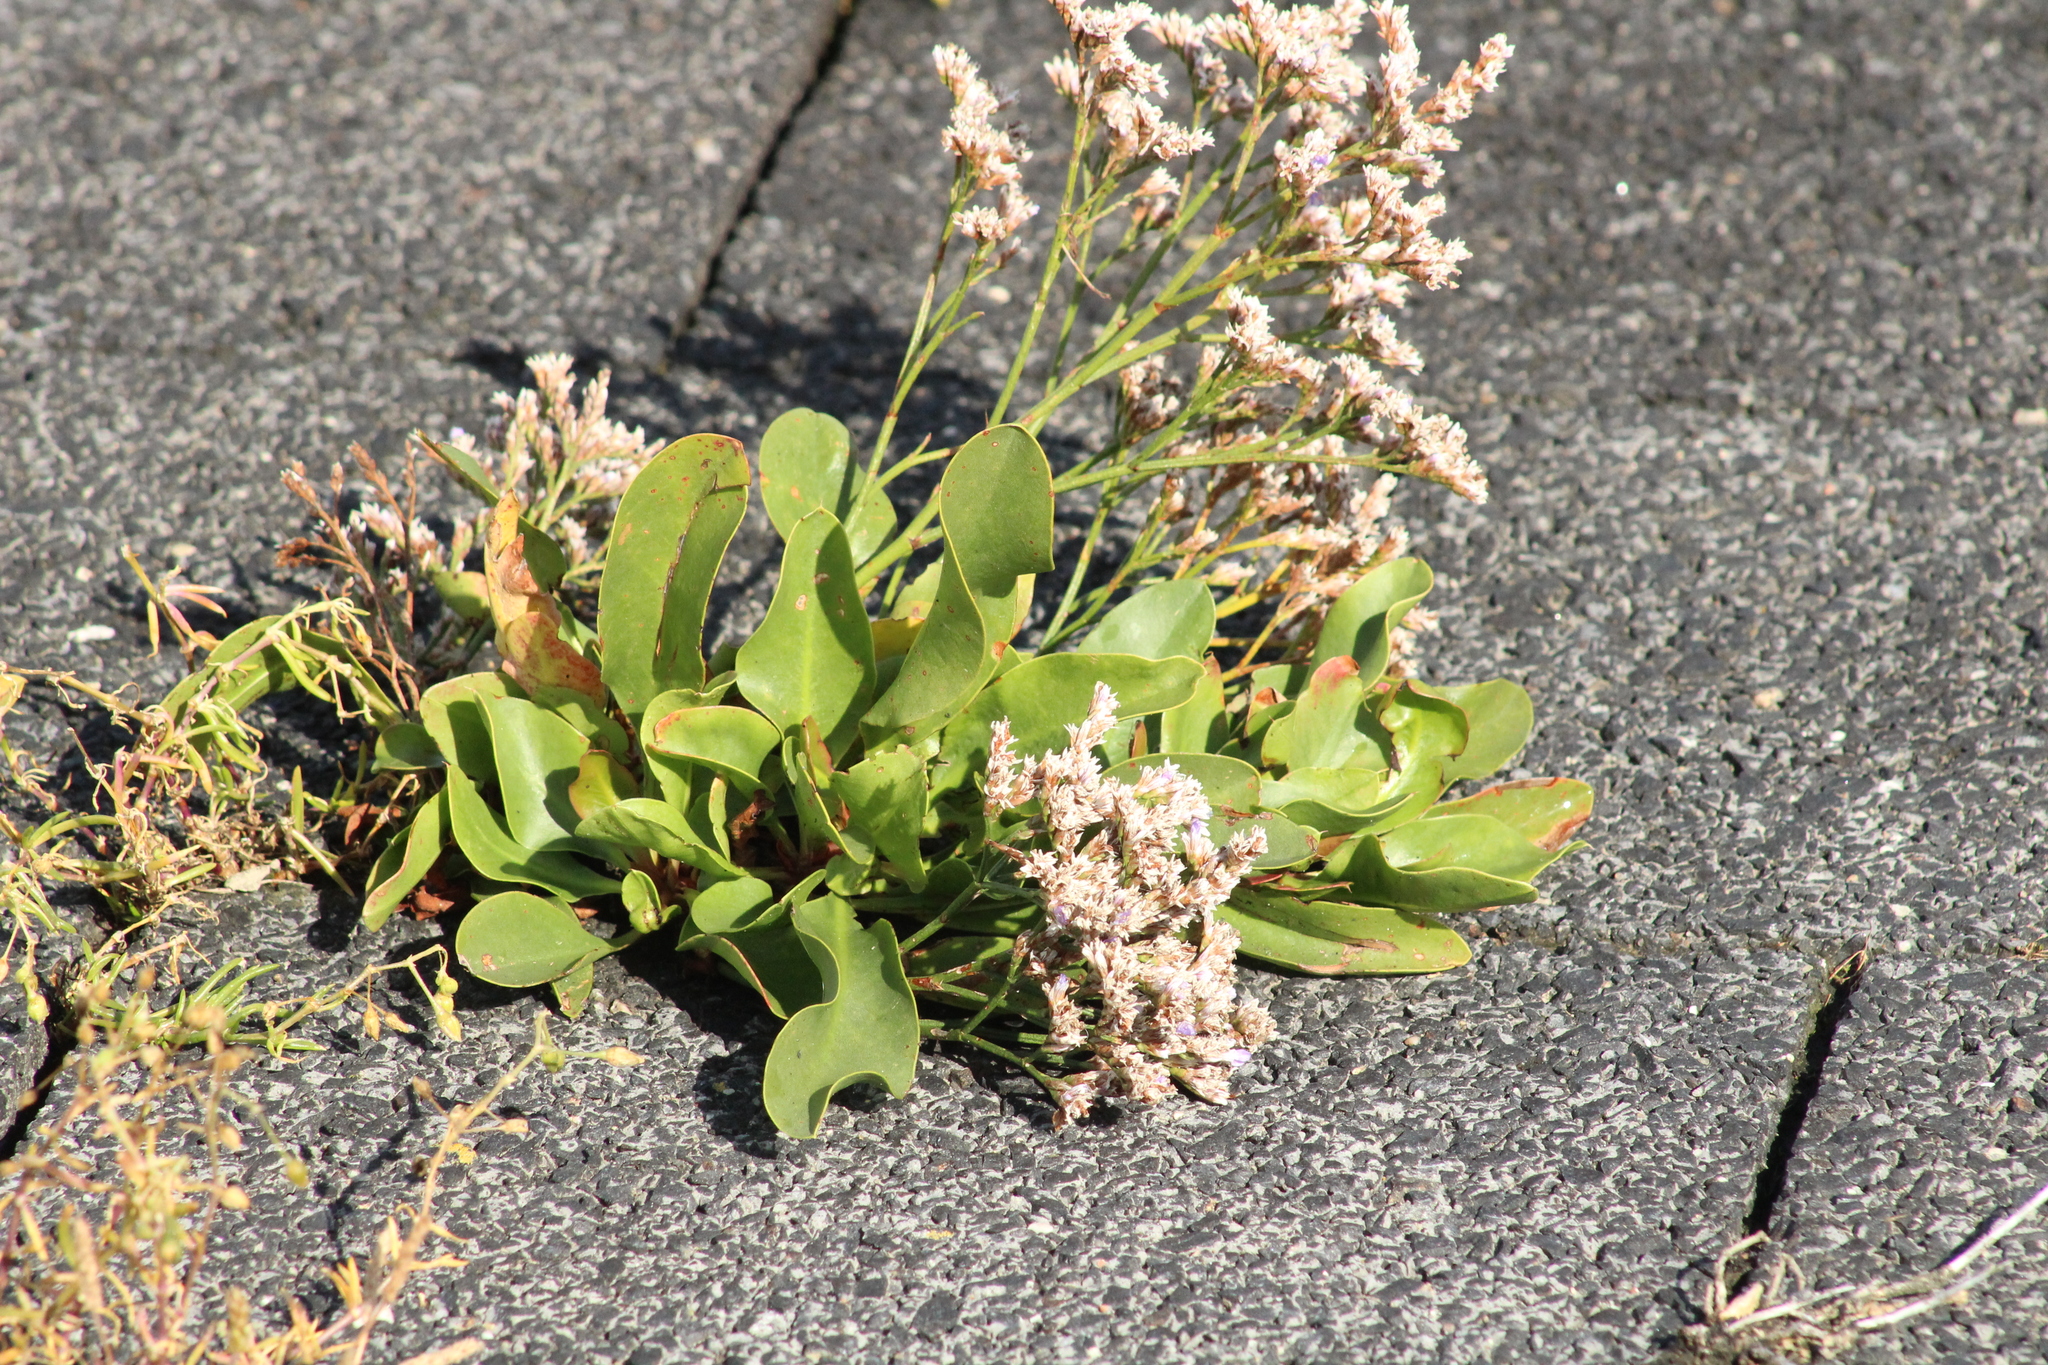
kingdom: Plantae
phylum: Tracheophyta
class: Magnoliopsida
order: Caryophyllales
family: Plumbaginaceae
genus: Limonium
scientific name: Limonium vulgare
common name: Common sea-lavender
